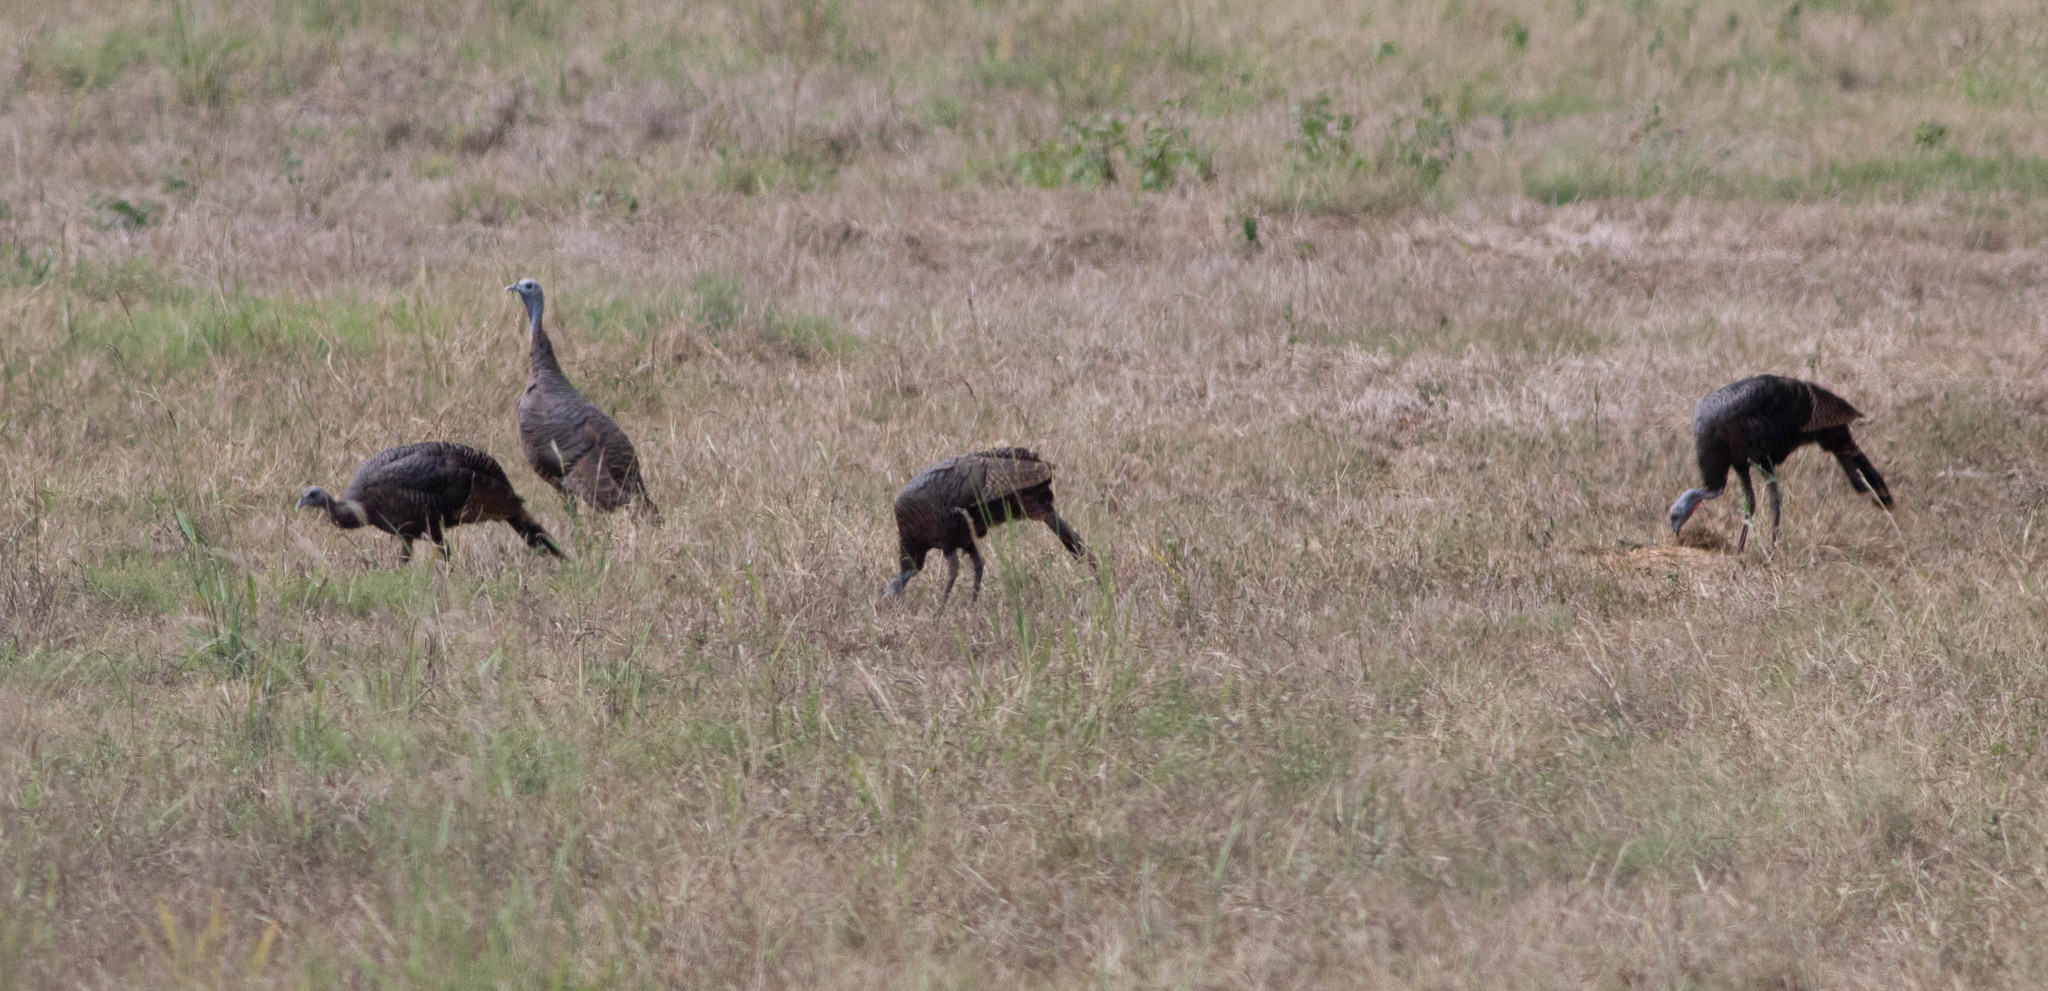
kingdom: Animalia
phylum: Chordata
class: Aves
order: Galliformes
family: Phasianidae
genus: Meleagris
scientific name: Meleagris gallopavo
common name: Wild turkey
